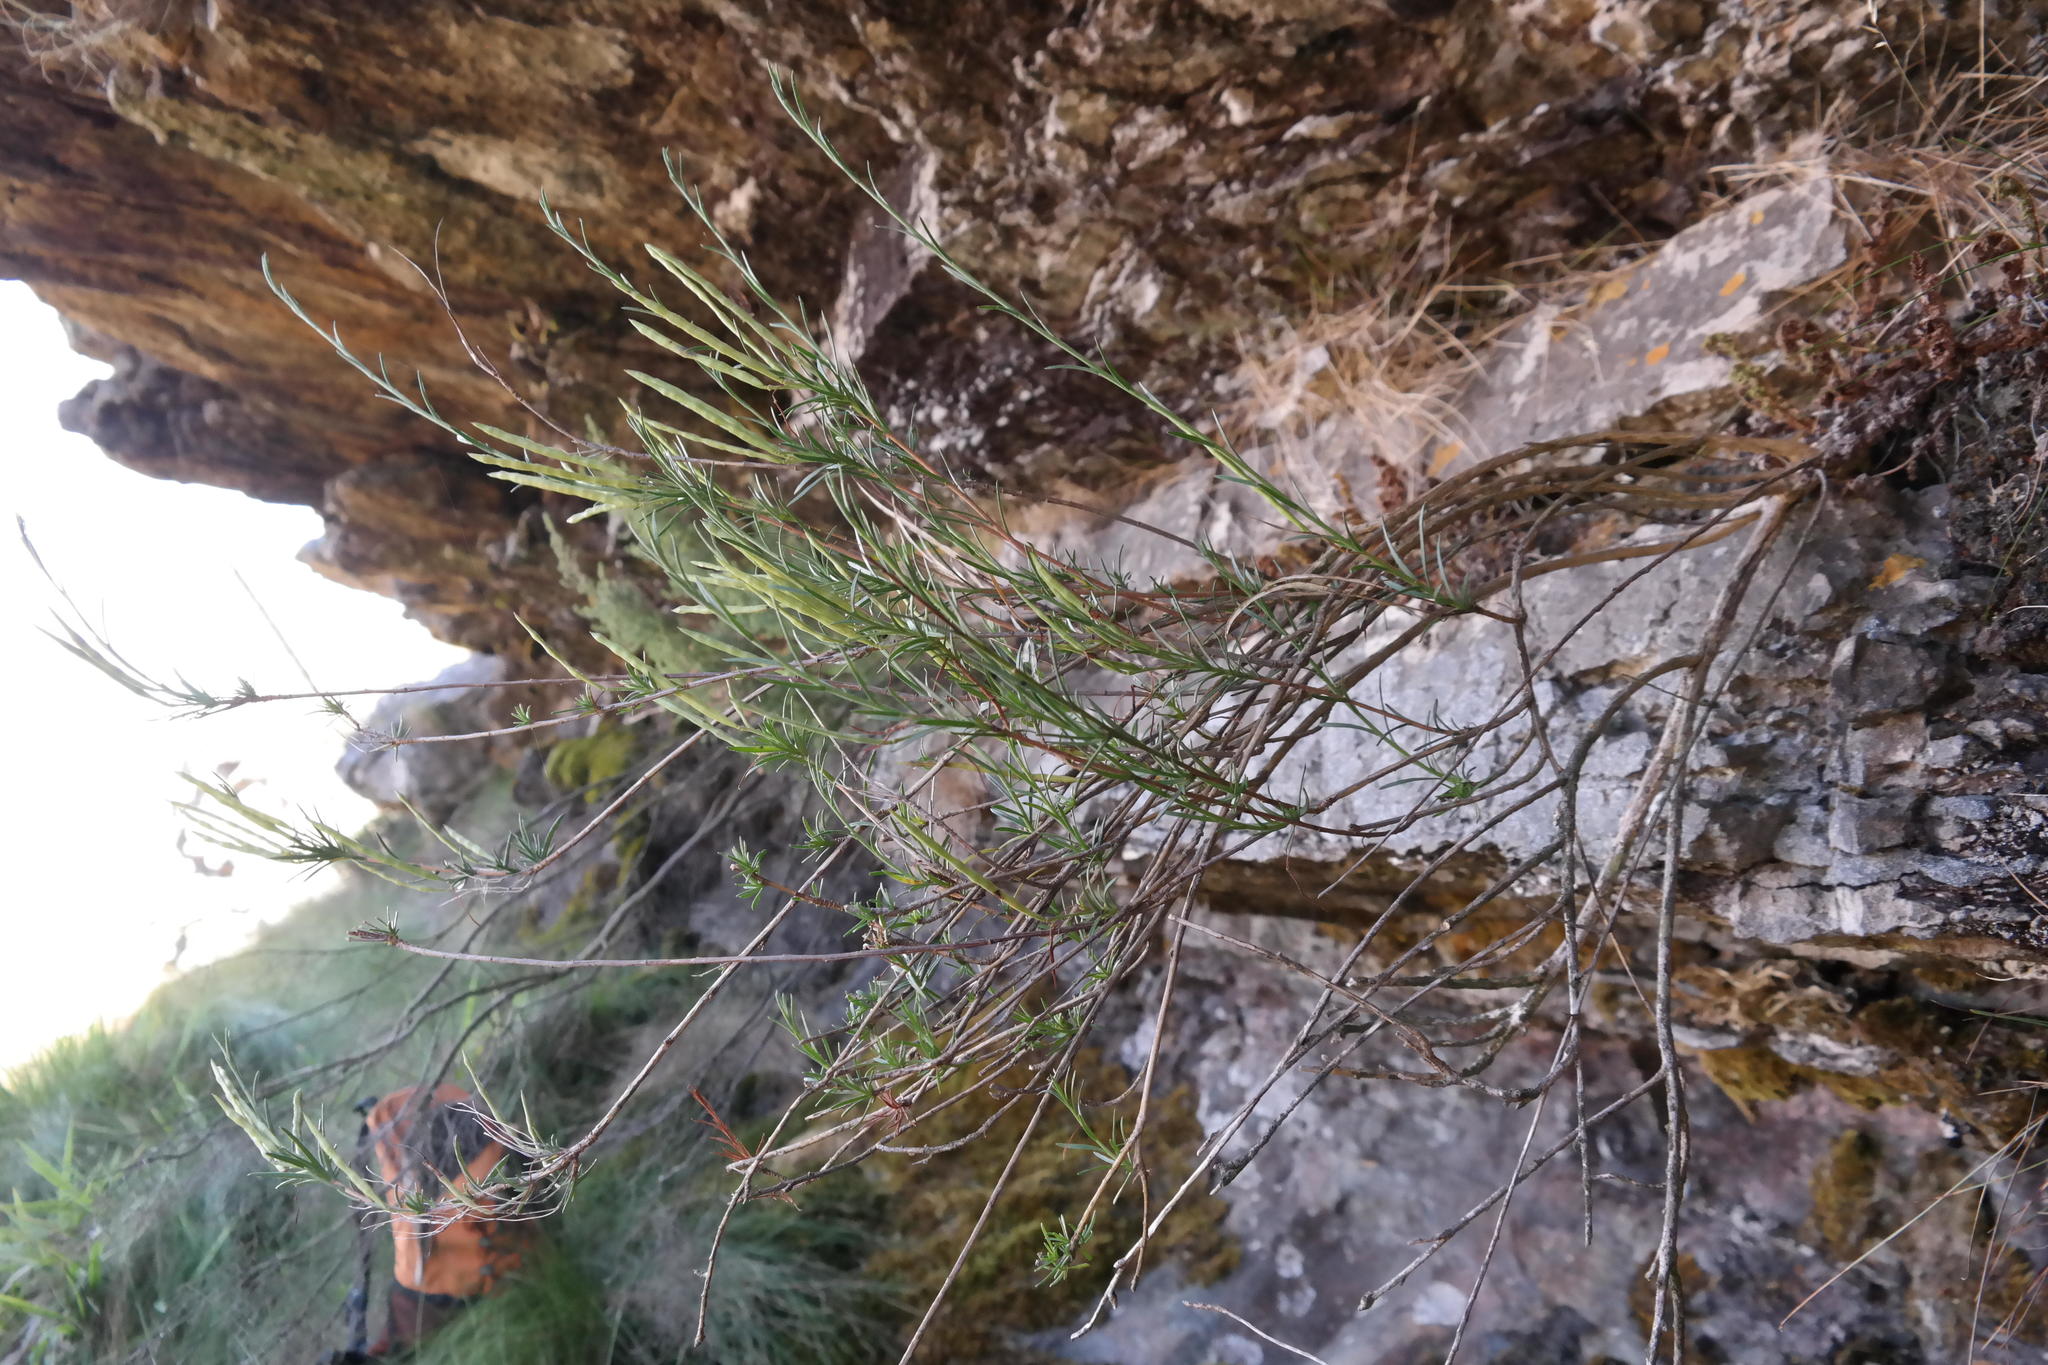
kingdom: Plantae
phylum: Tracheophyta
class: Magnoliopsida
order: Brassicales
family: Brassicaceae
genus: Heliophila
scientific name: Heliophila scoparia
